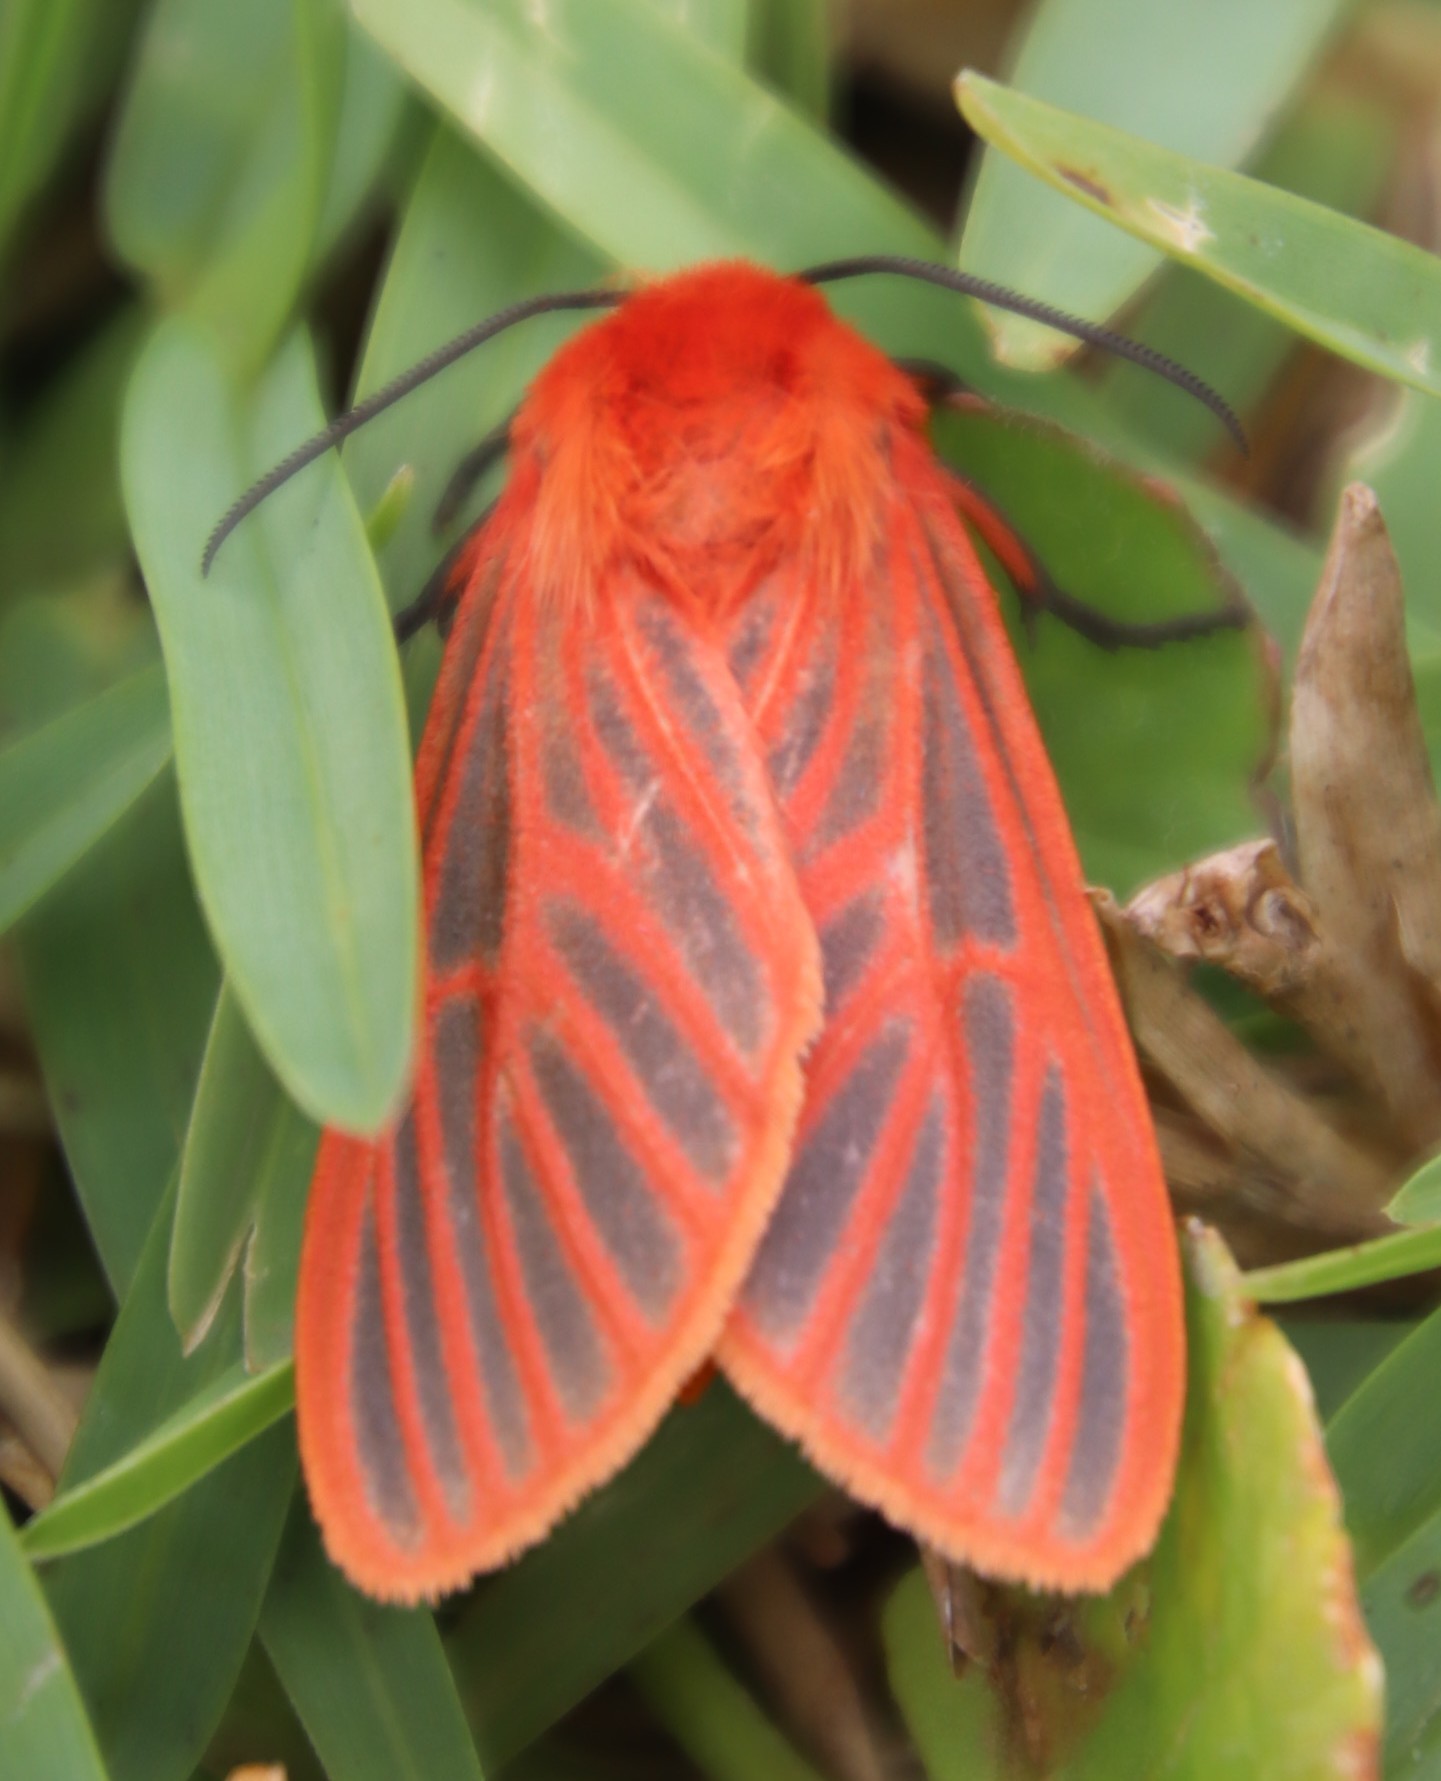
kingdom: Animalia
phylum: Arthropoda
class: Insecta
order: Lepidoptera
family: Erebidae
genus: Automolis
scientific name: Automolis lateritia
